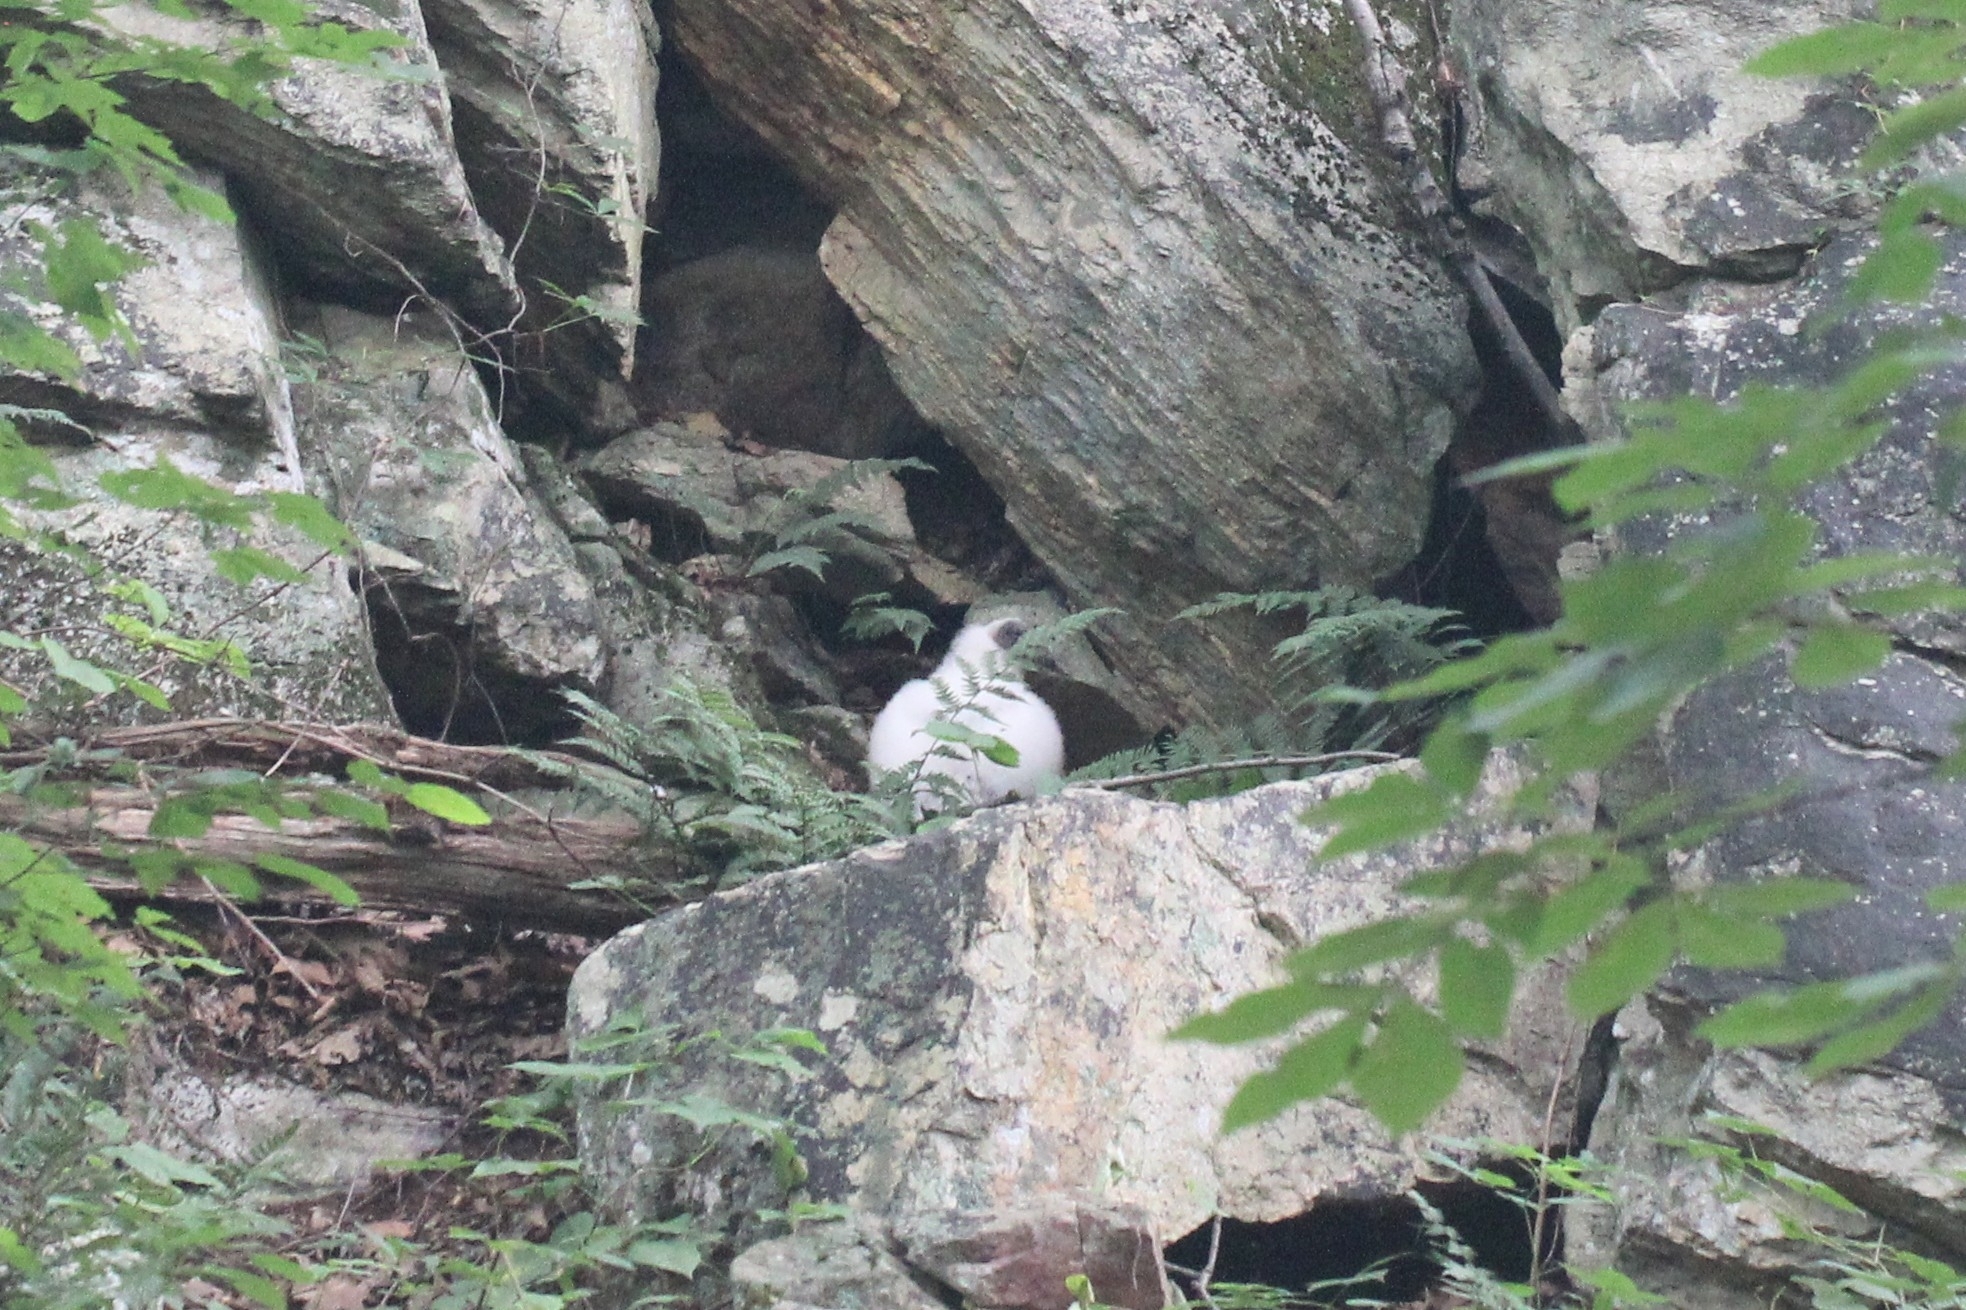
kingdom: Animalia
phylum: Chordata
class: Aves
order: Accipitriformes
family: Cathartidae
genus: Cathartes
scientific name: Cathartes aura
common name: Turkey vulture
